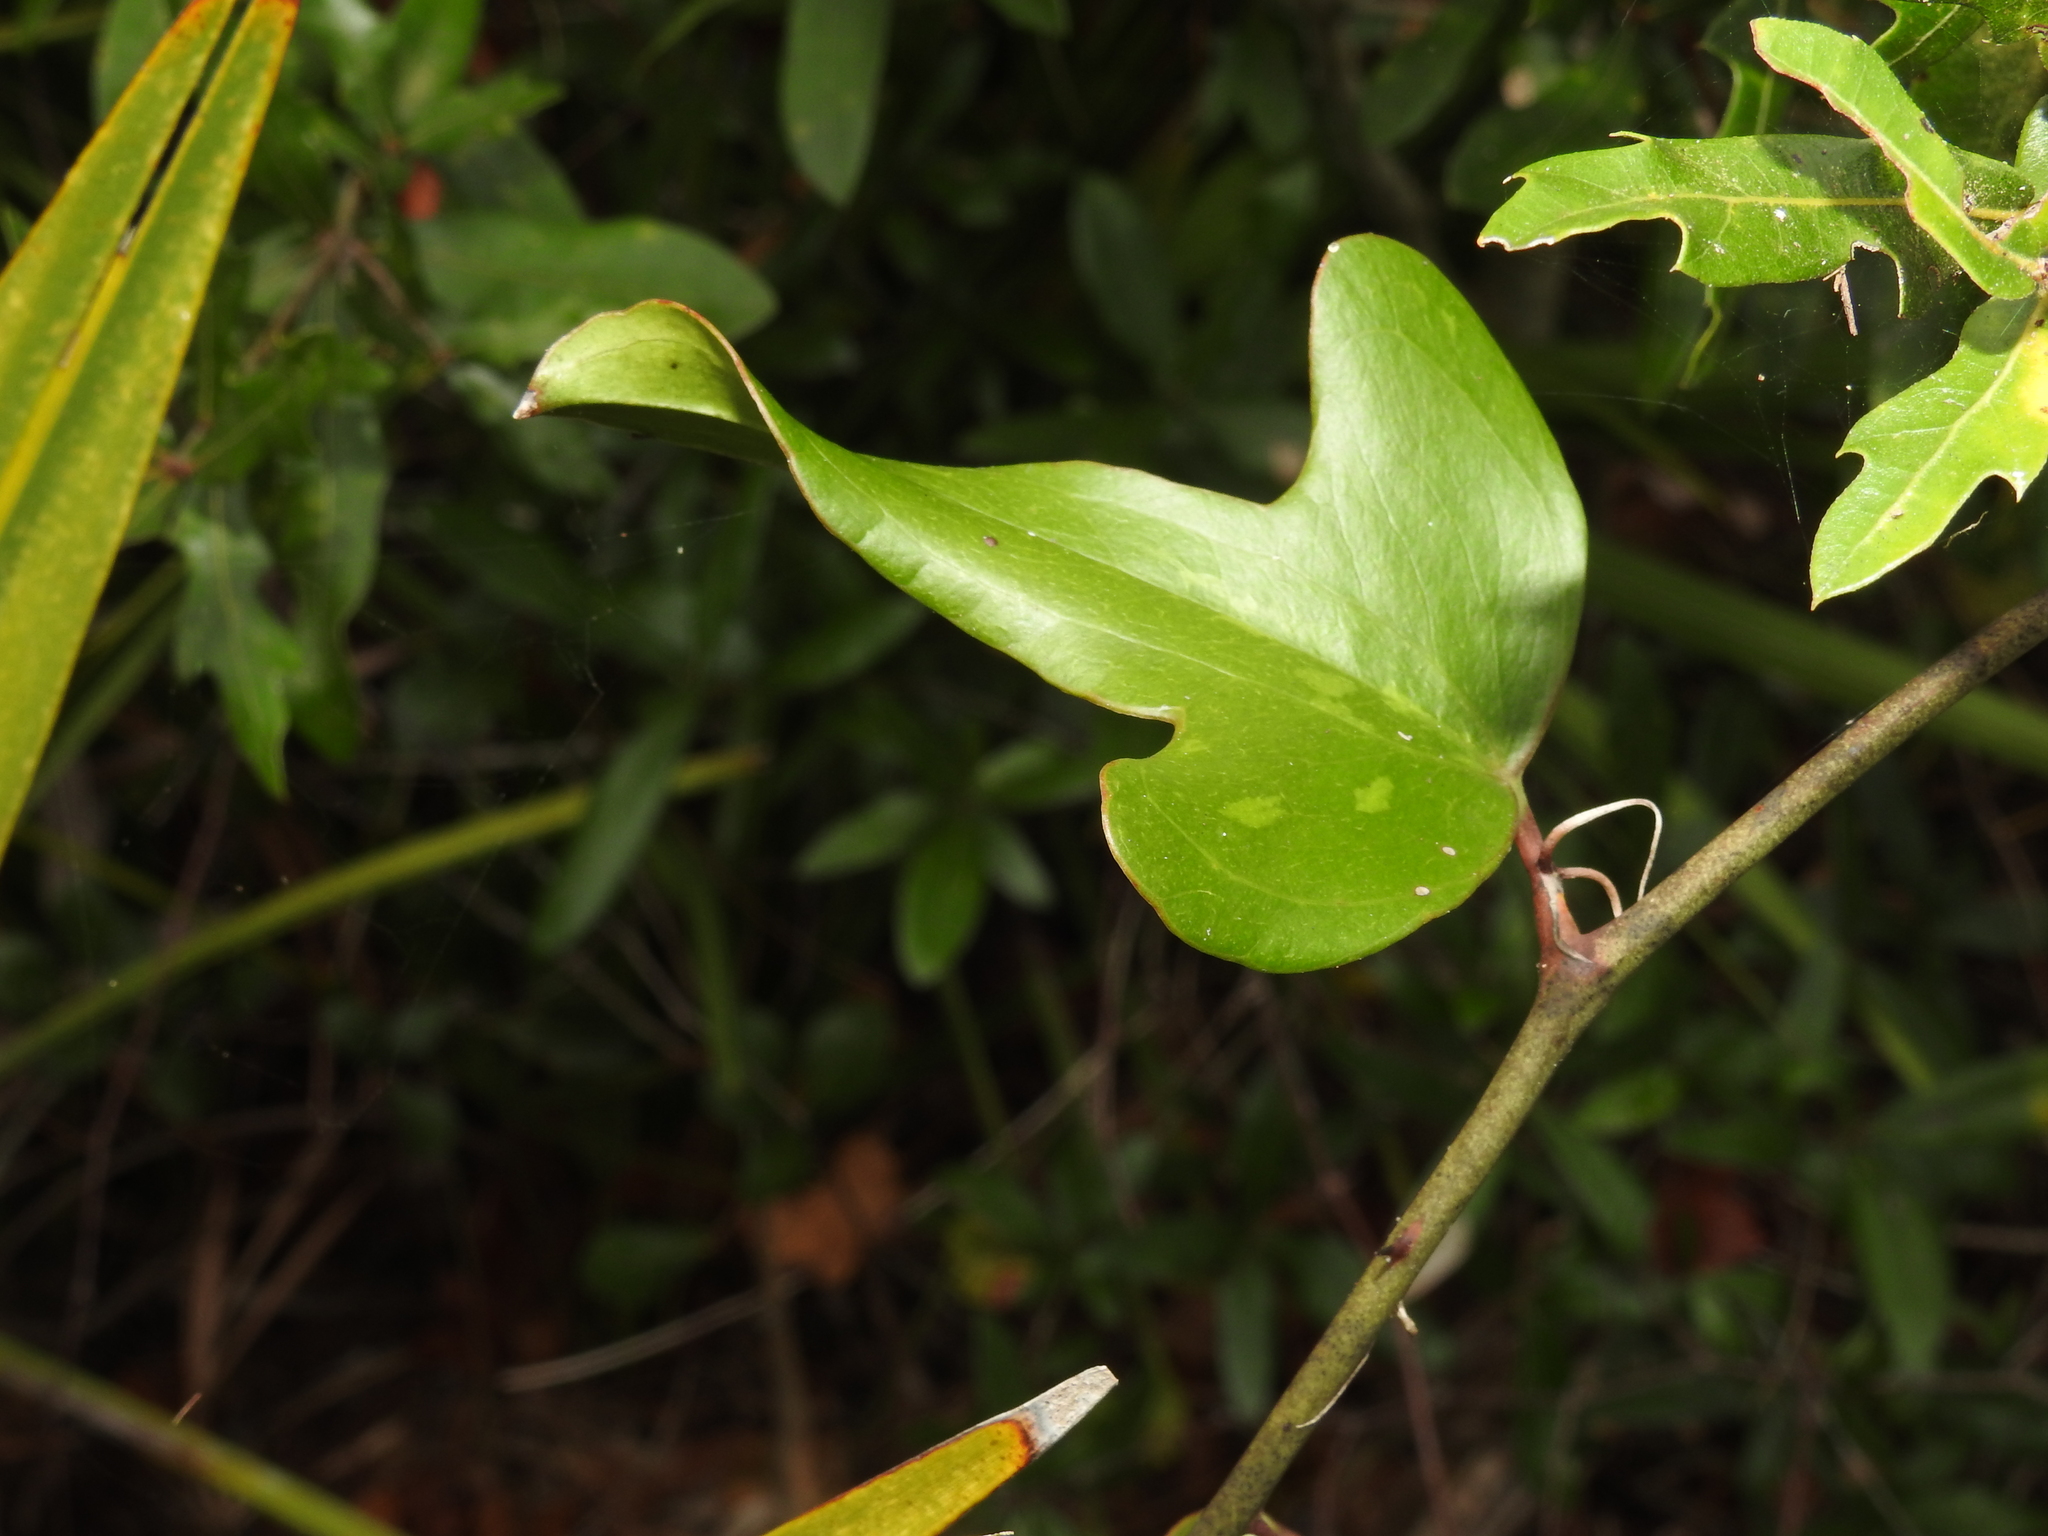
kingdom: Plantae
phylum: Tracheophyta
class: Liliopsida
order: Liliales
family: Smilacaceae
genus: Smilax
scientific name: Smilax auriculata
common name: Wild bamboo
